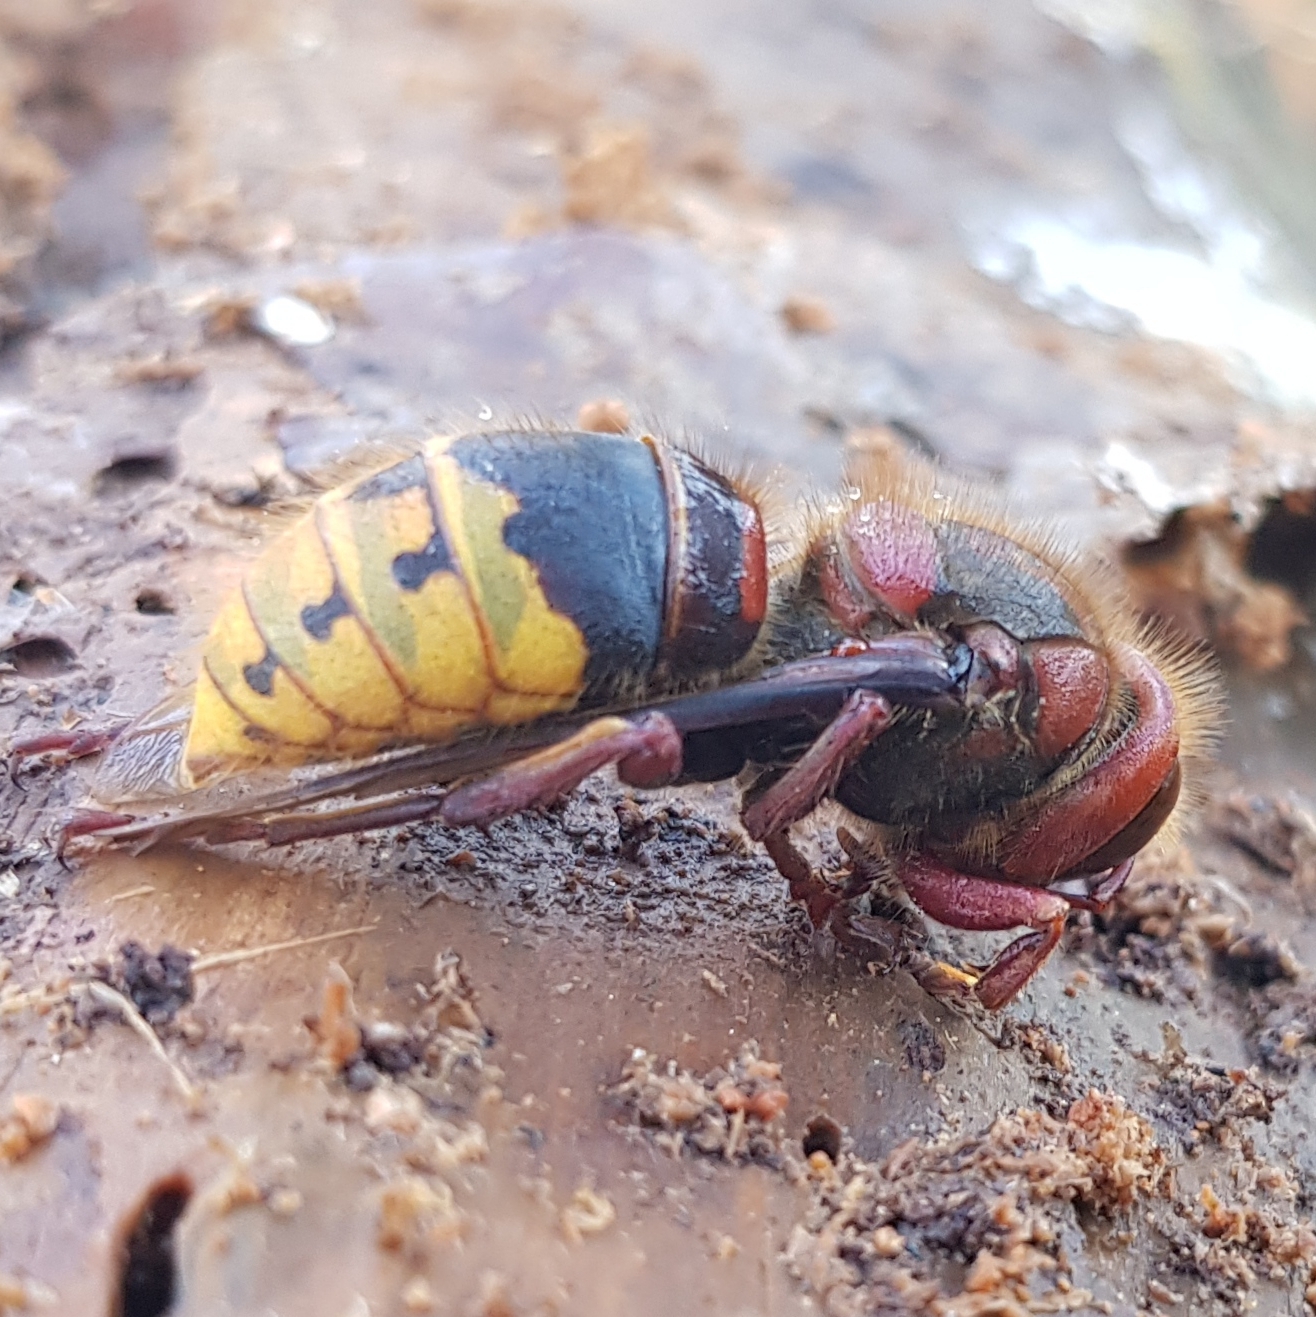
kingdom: Animalia
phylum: Arthropoda
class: Insecta
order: Hymenoptera
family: Vespidae
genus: Vespa
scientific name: Vespa crabro
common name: Hornet
